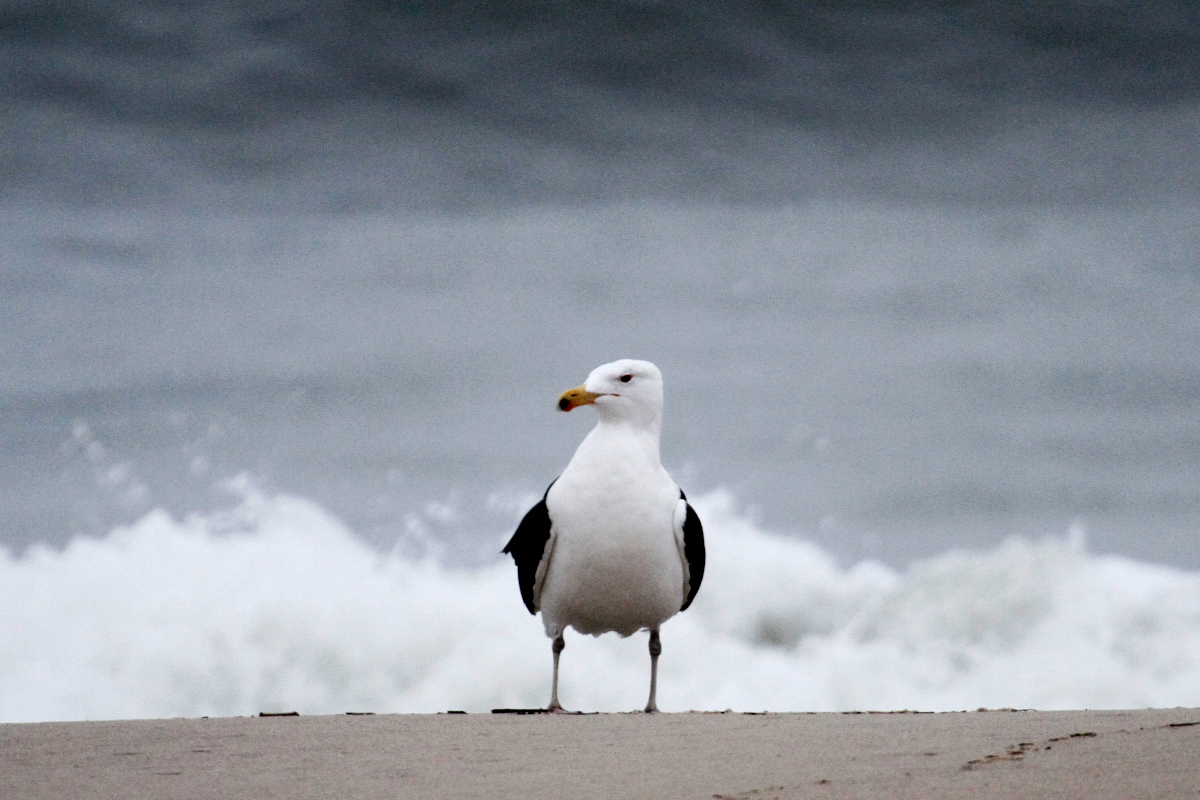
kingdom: Animalia
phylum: Chordata
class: Aves
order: Charadriiformes
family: Laridae
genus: Larus
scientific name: Larus marinus
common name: Great black-backed gull
